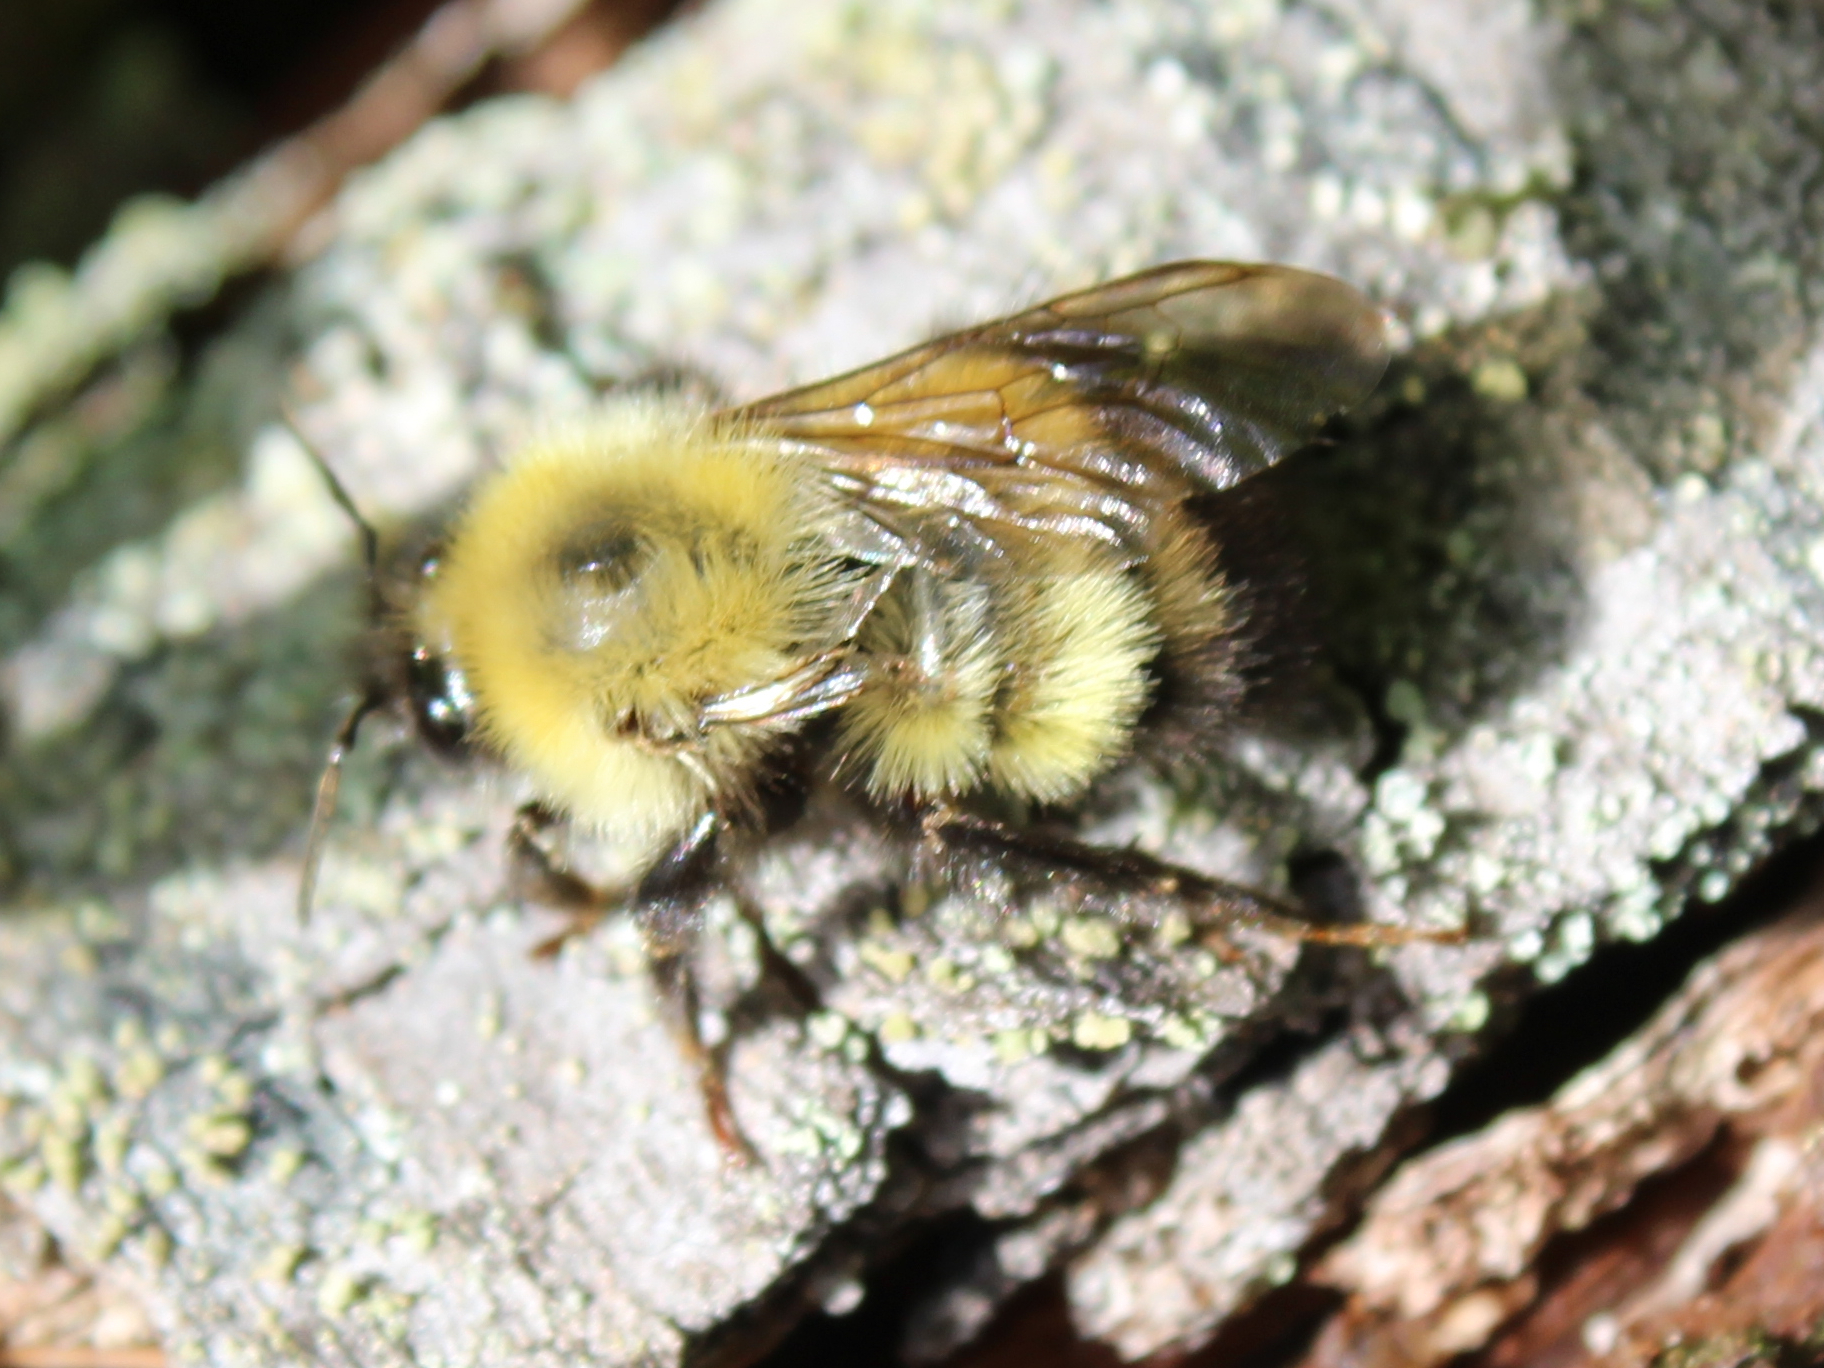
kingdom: Animalia
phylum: Arthropoda
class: Insecta
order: Hymenoptera
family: Apidae
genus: Bombus
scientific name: Bombus perplexus
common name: Confusing bumble bee
